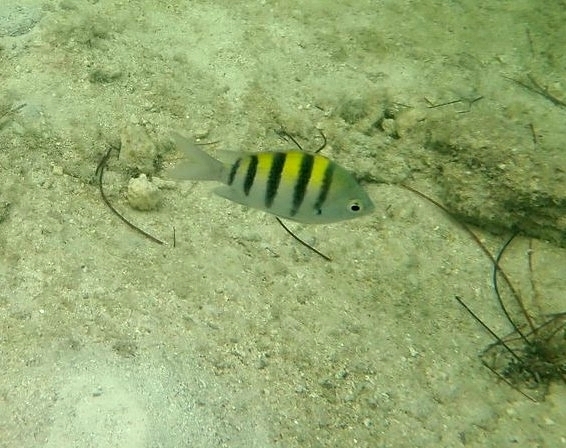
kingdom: Animalia
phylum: Chordata
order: Perciformes
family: Pomacentridae
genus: Abudefduf
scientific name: Abudefduf saxatilis
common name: Sergeant major
